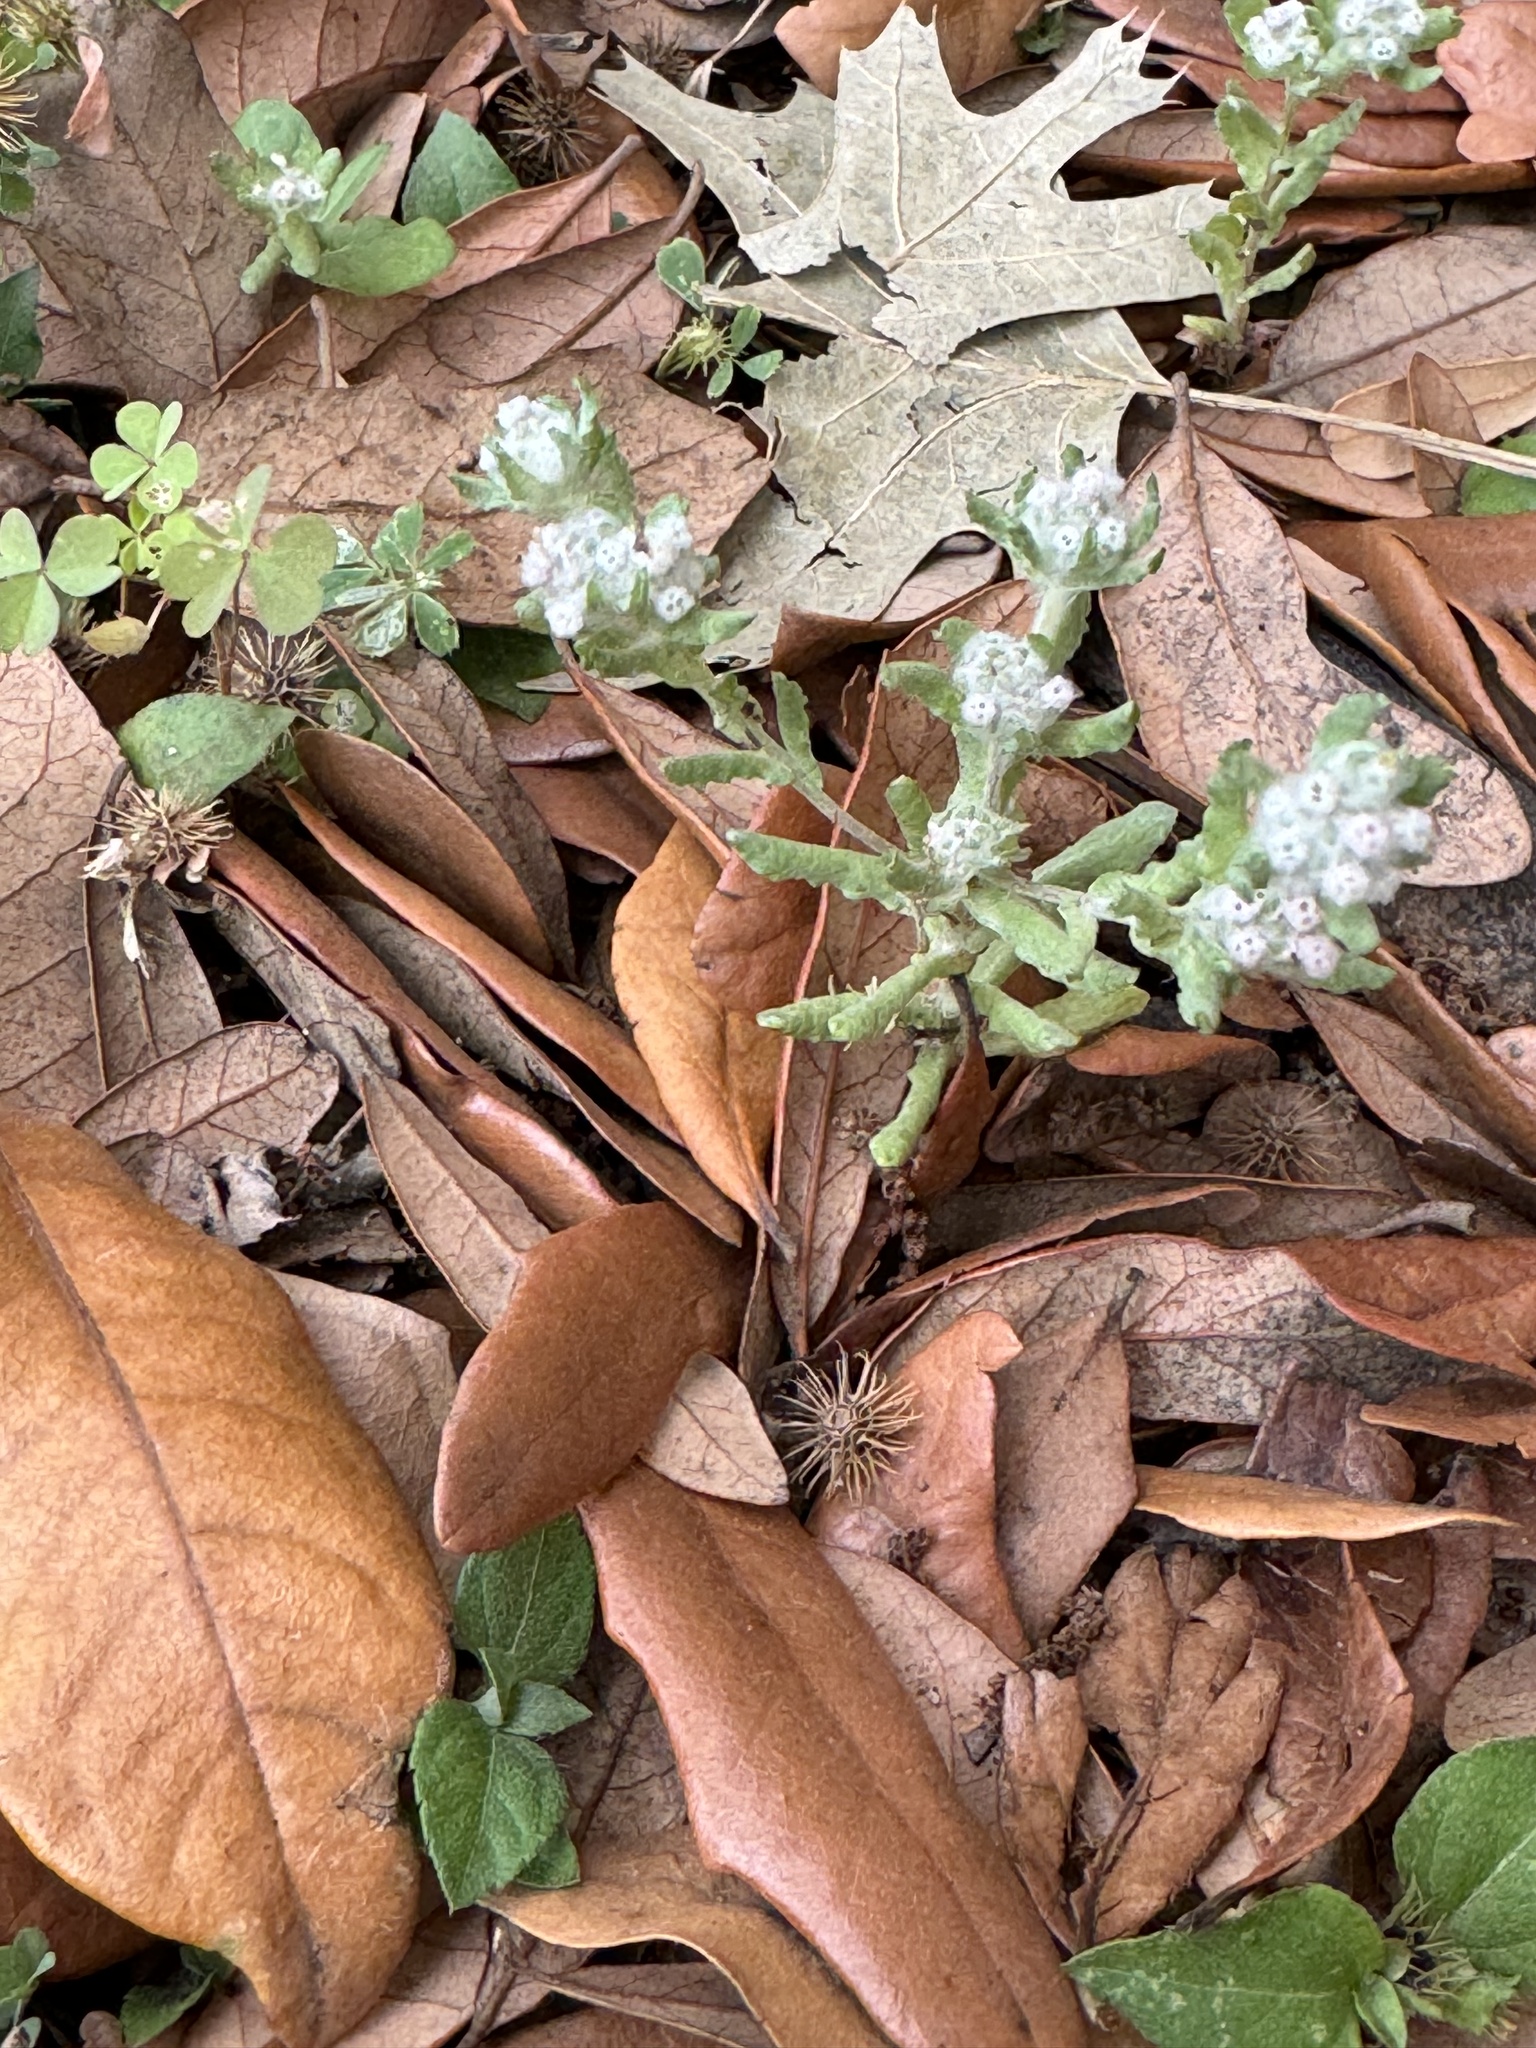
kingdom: Plantae
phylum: Tracheophyta
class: Magnoliopsida
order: Asterales
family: Asteraceae
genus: Diaperia
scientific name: Diaperia verna
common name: Many-stem rabbit-tobacco
